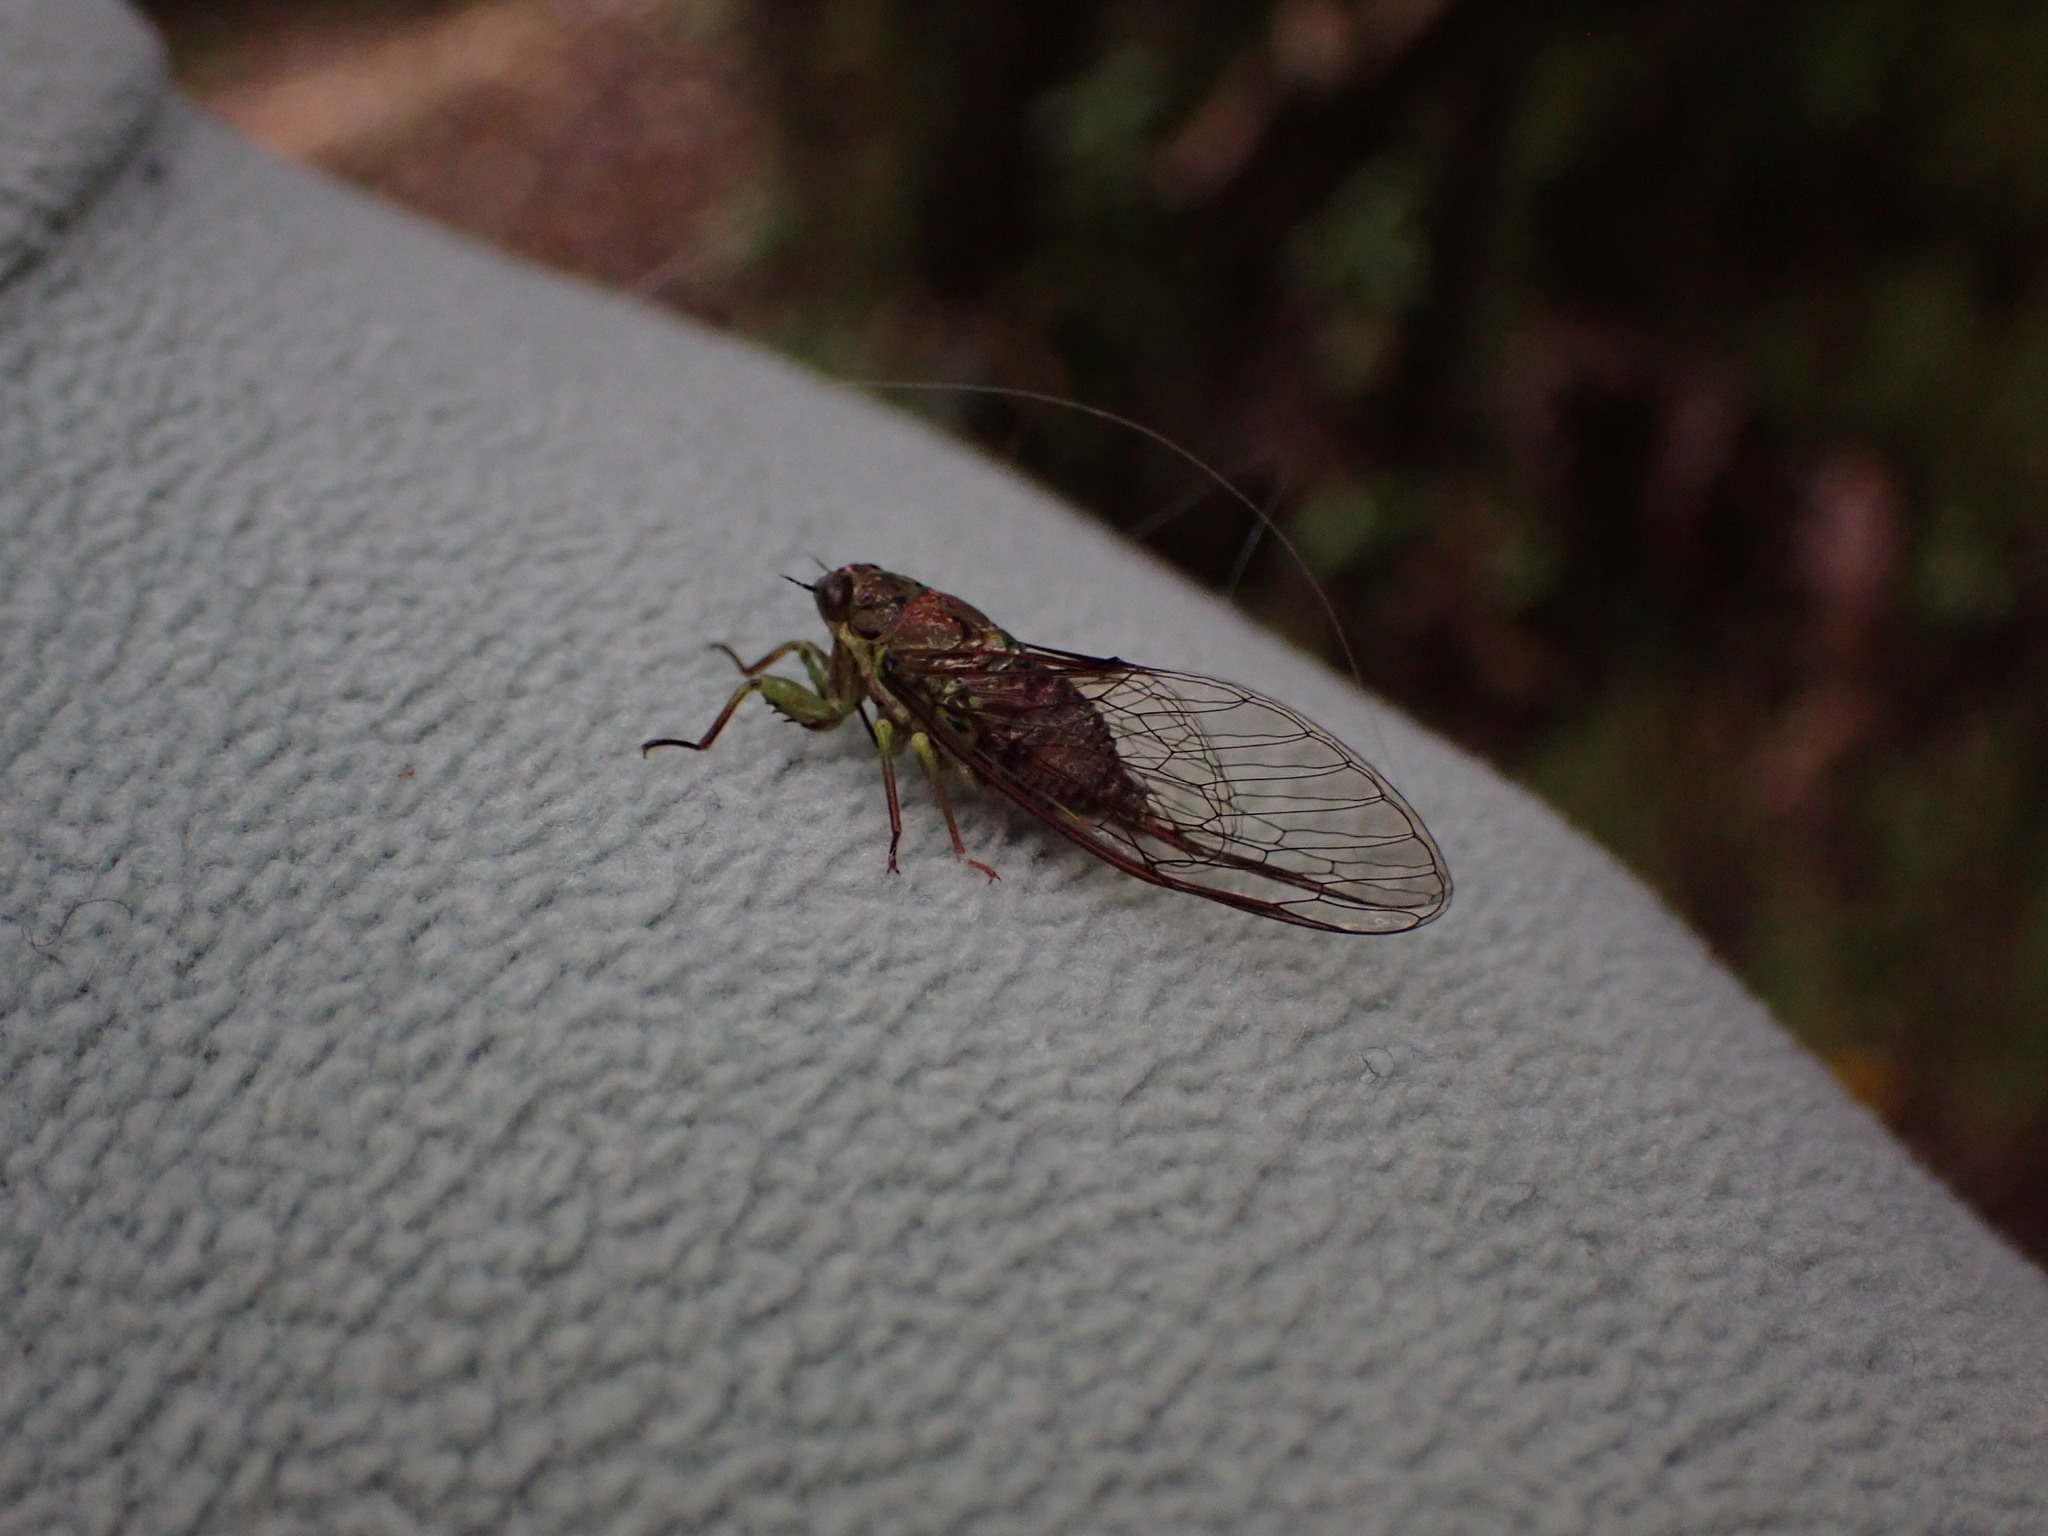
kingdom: Animalia
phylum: Arthropoda
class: Insecta
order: Hemiptera
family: Cicadidae
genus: Kikihia
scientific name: Kikihia scutellaris
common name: Lesser bronze cicada
